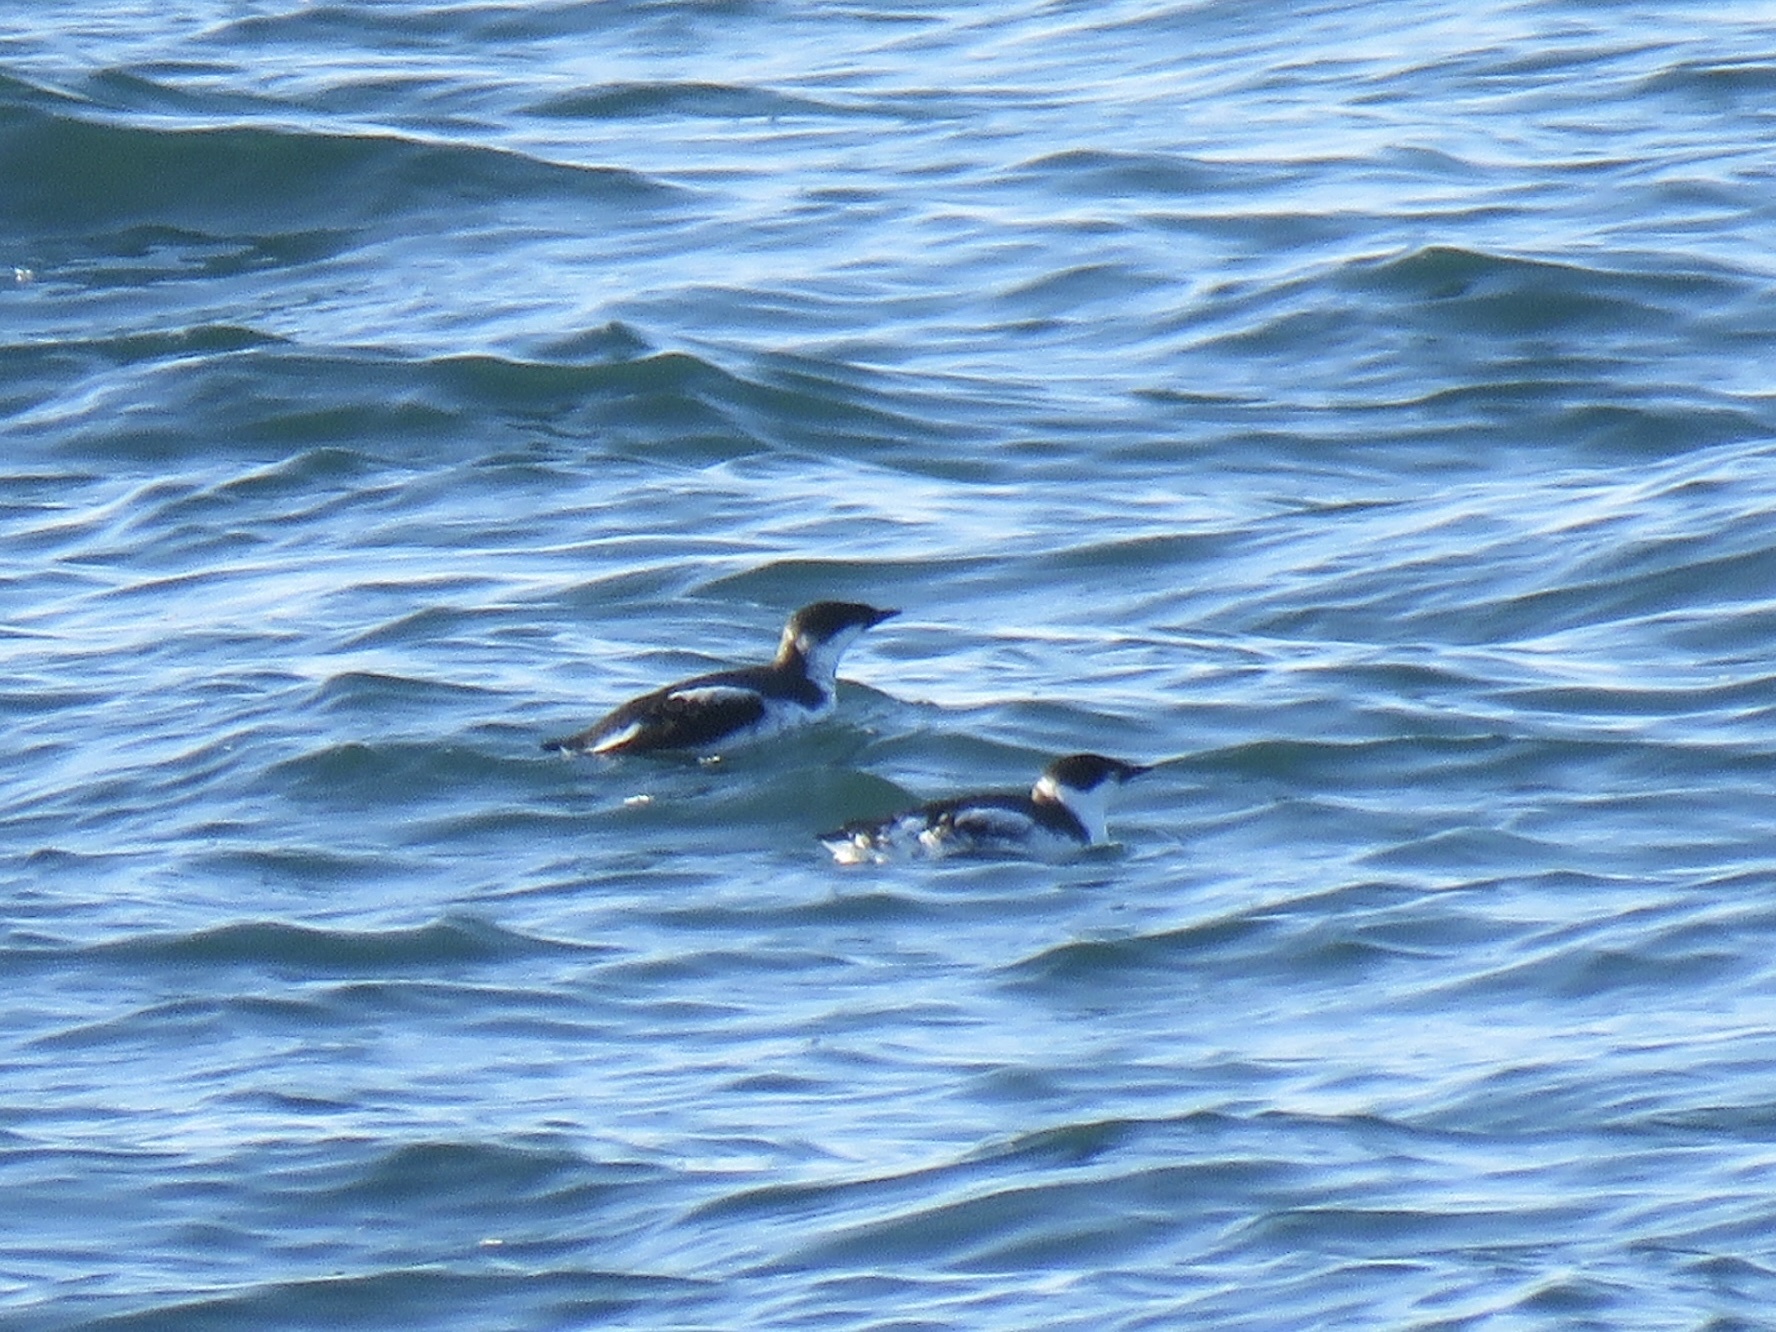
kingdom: Animalia
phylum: Chordata
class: Aves
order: Charadriiformes
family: Alcidae
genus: Brachyramphus
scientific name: Brachyramphus marmoratus
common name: Marbled murrelet
